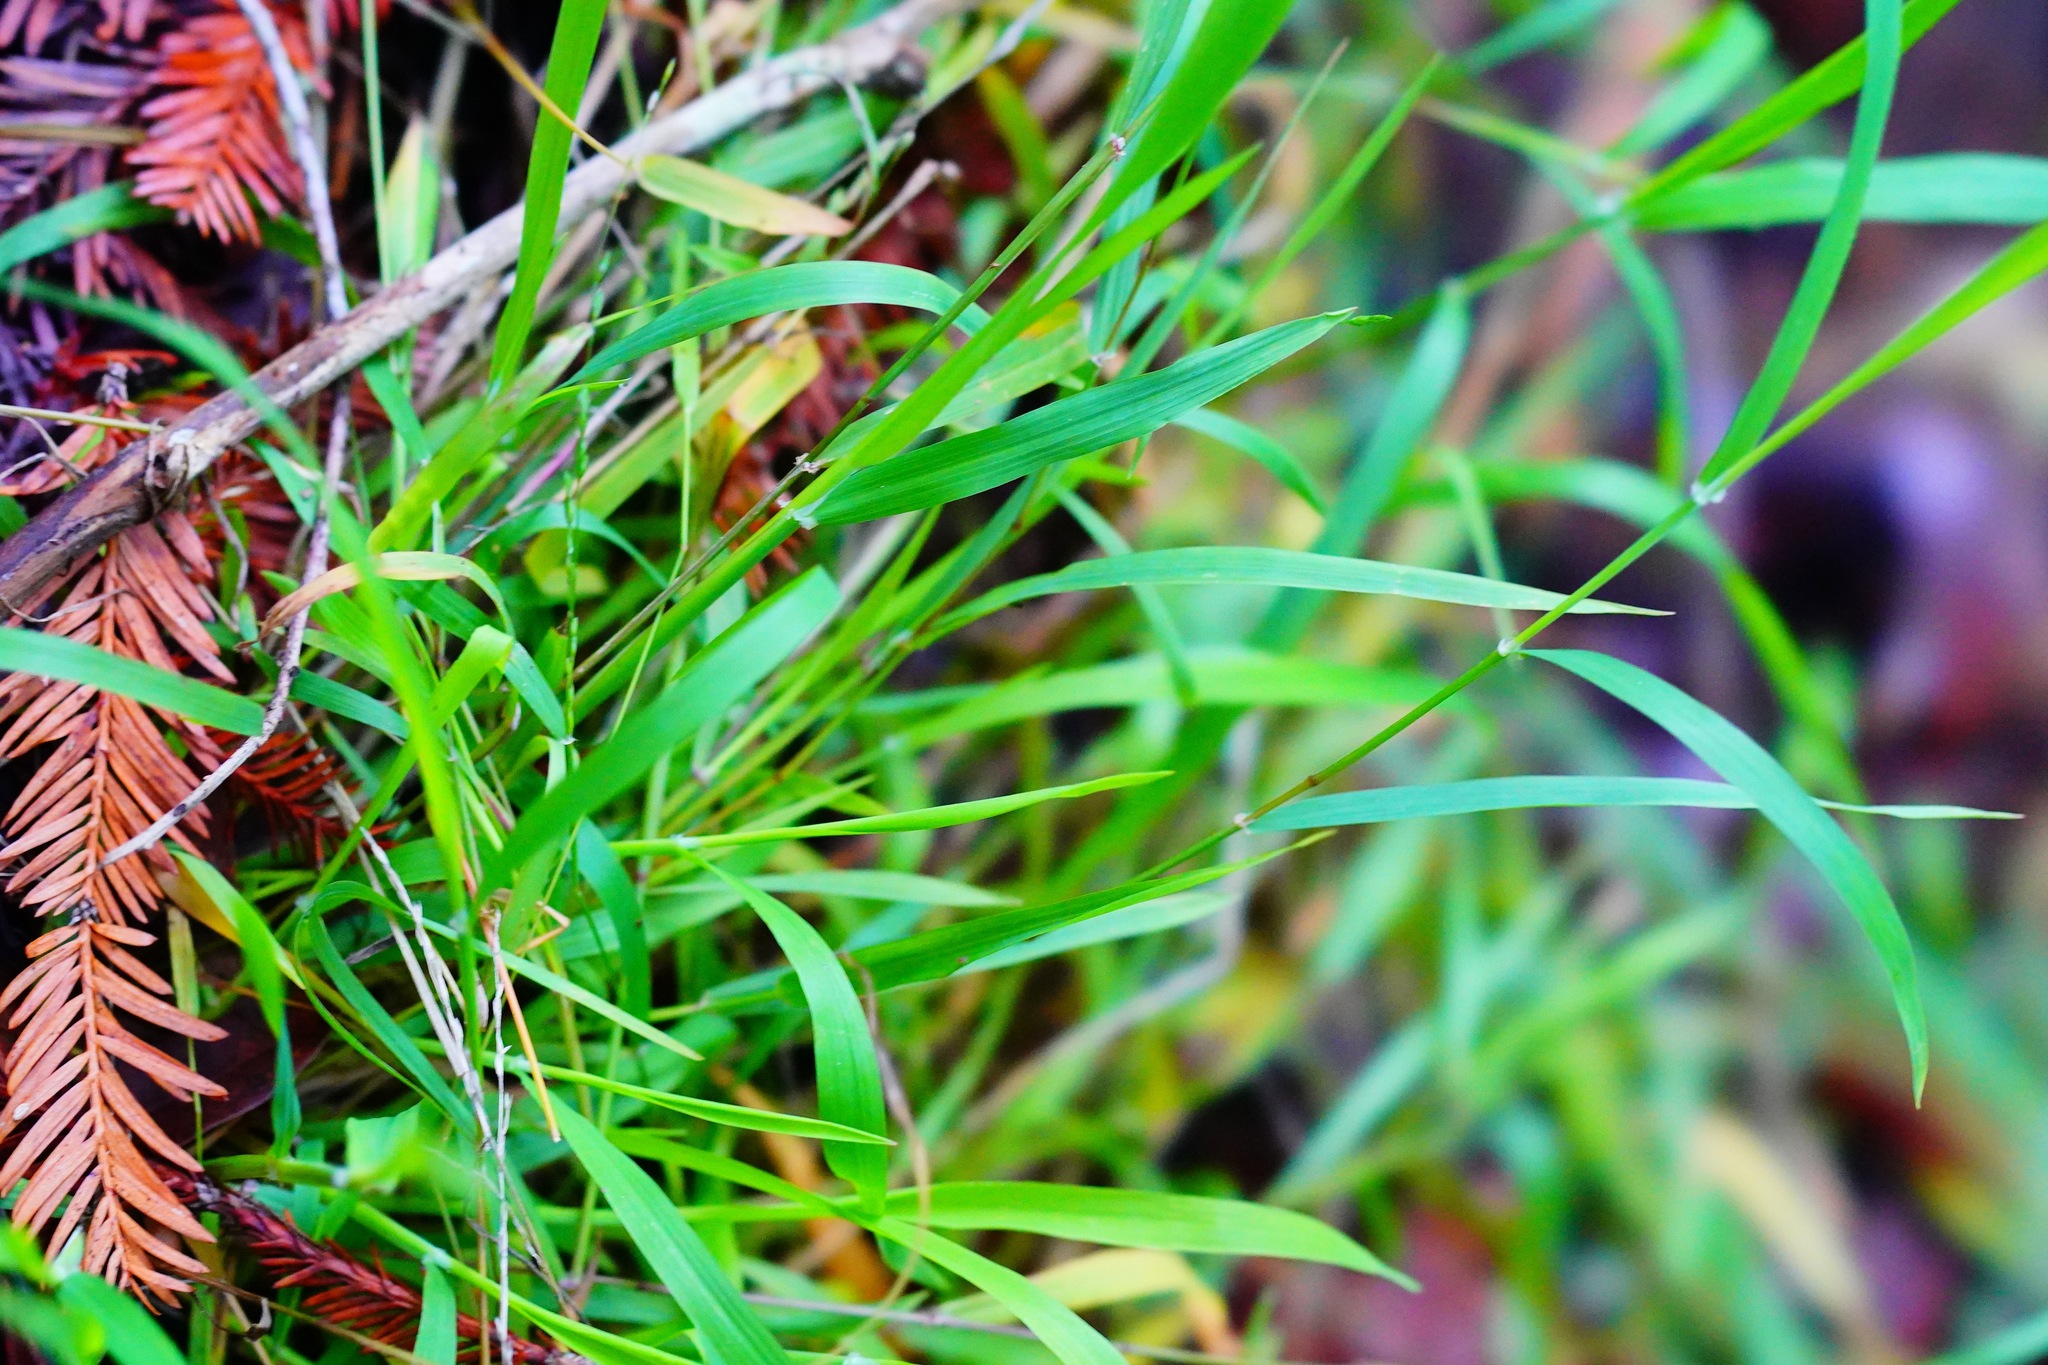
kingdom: Plantae
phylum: Tracheophyta
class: Liliopsida
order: Poales
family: Poaceae
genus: Ehrharta
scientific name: Ehrharta erecta
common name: Panic veldtgrass
